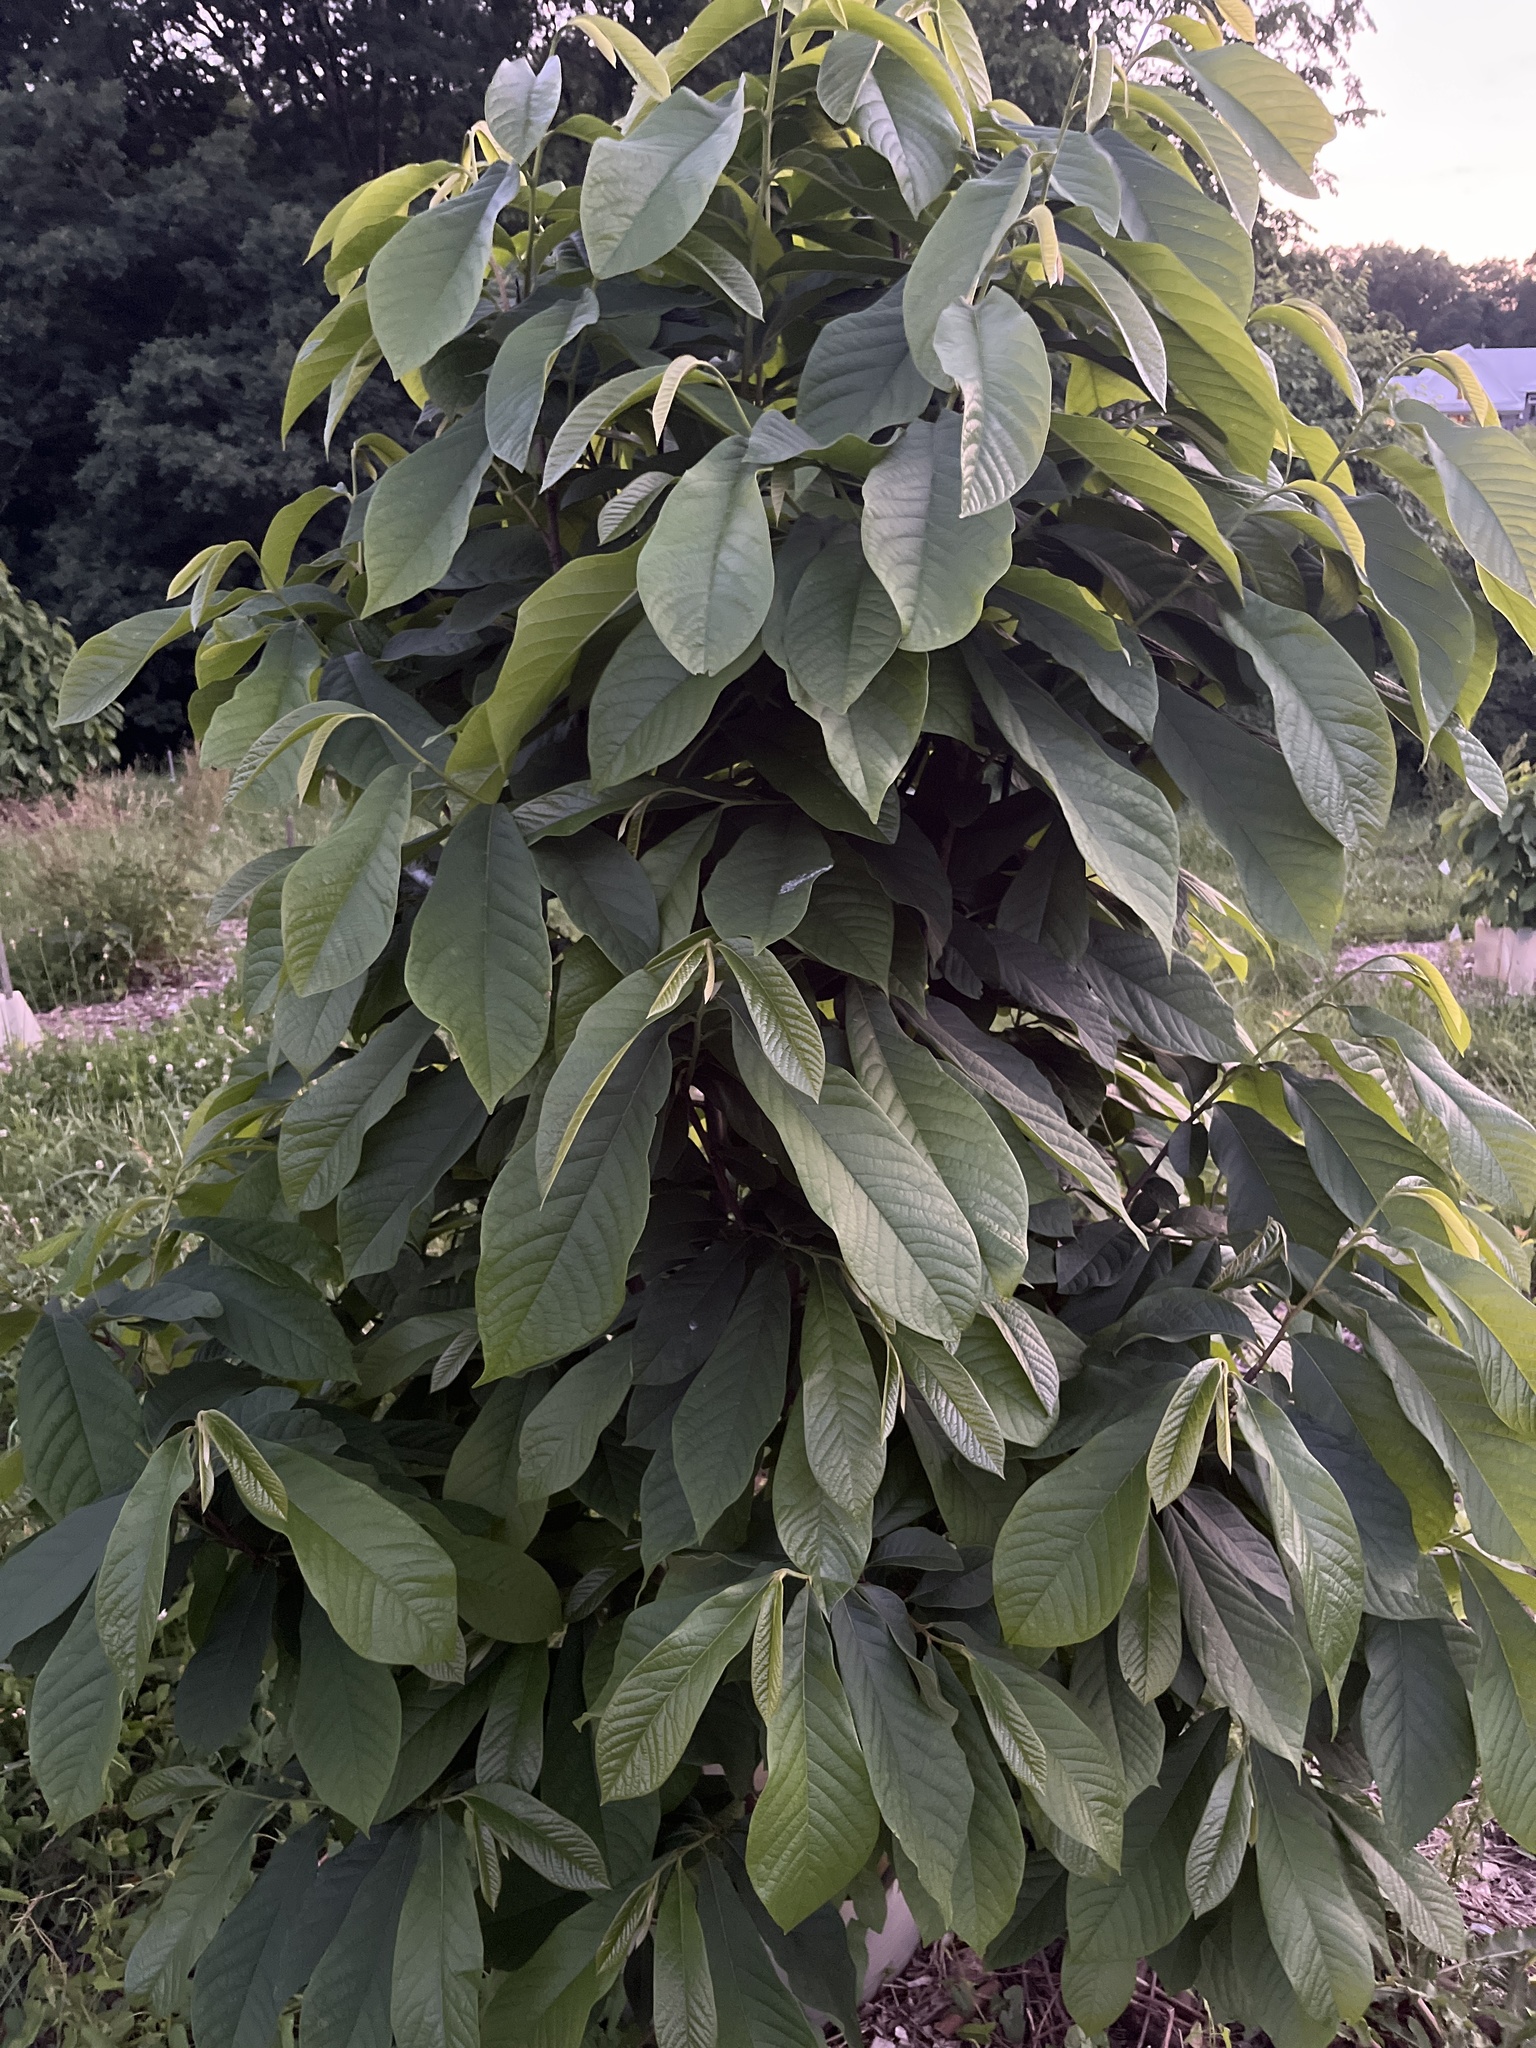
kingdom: Plantae
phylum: Tracheophyta
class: Magnoliopsida
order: Magnoliales
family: Annonaceae
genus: Asimina
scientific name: Asimina triloba
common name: Dog-banana
